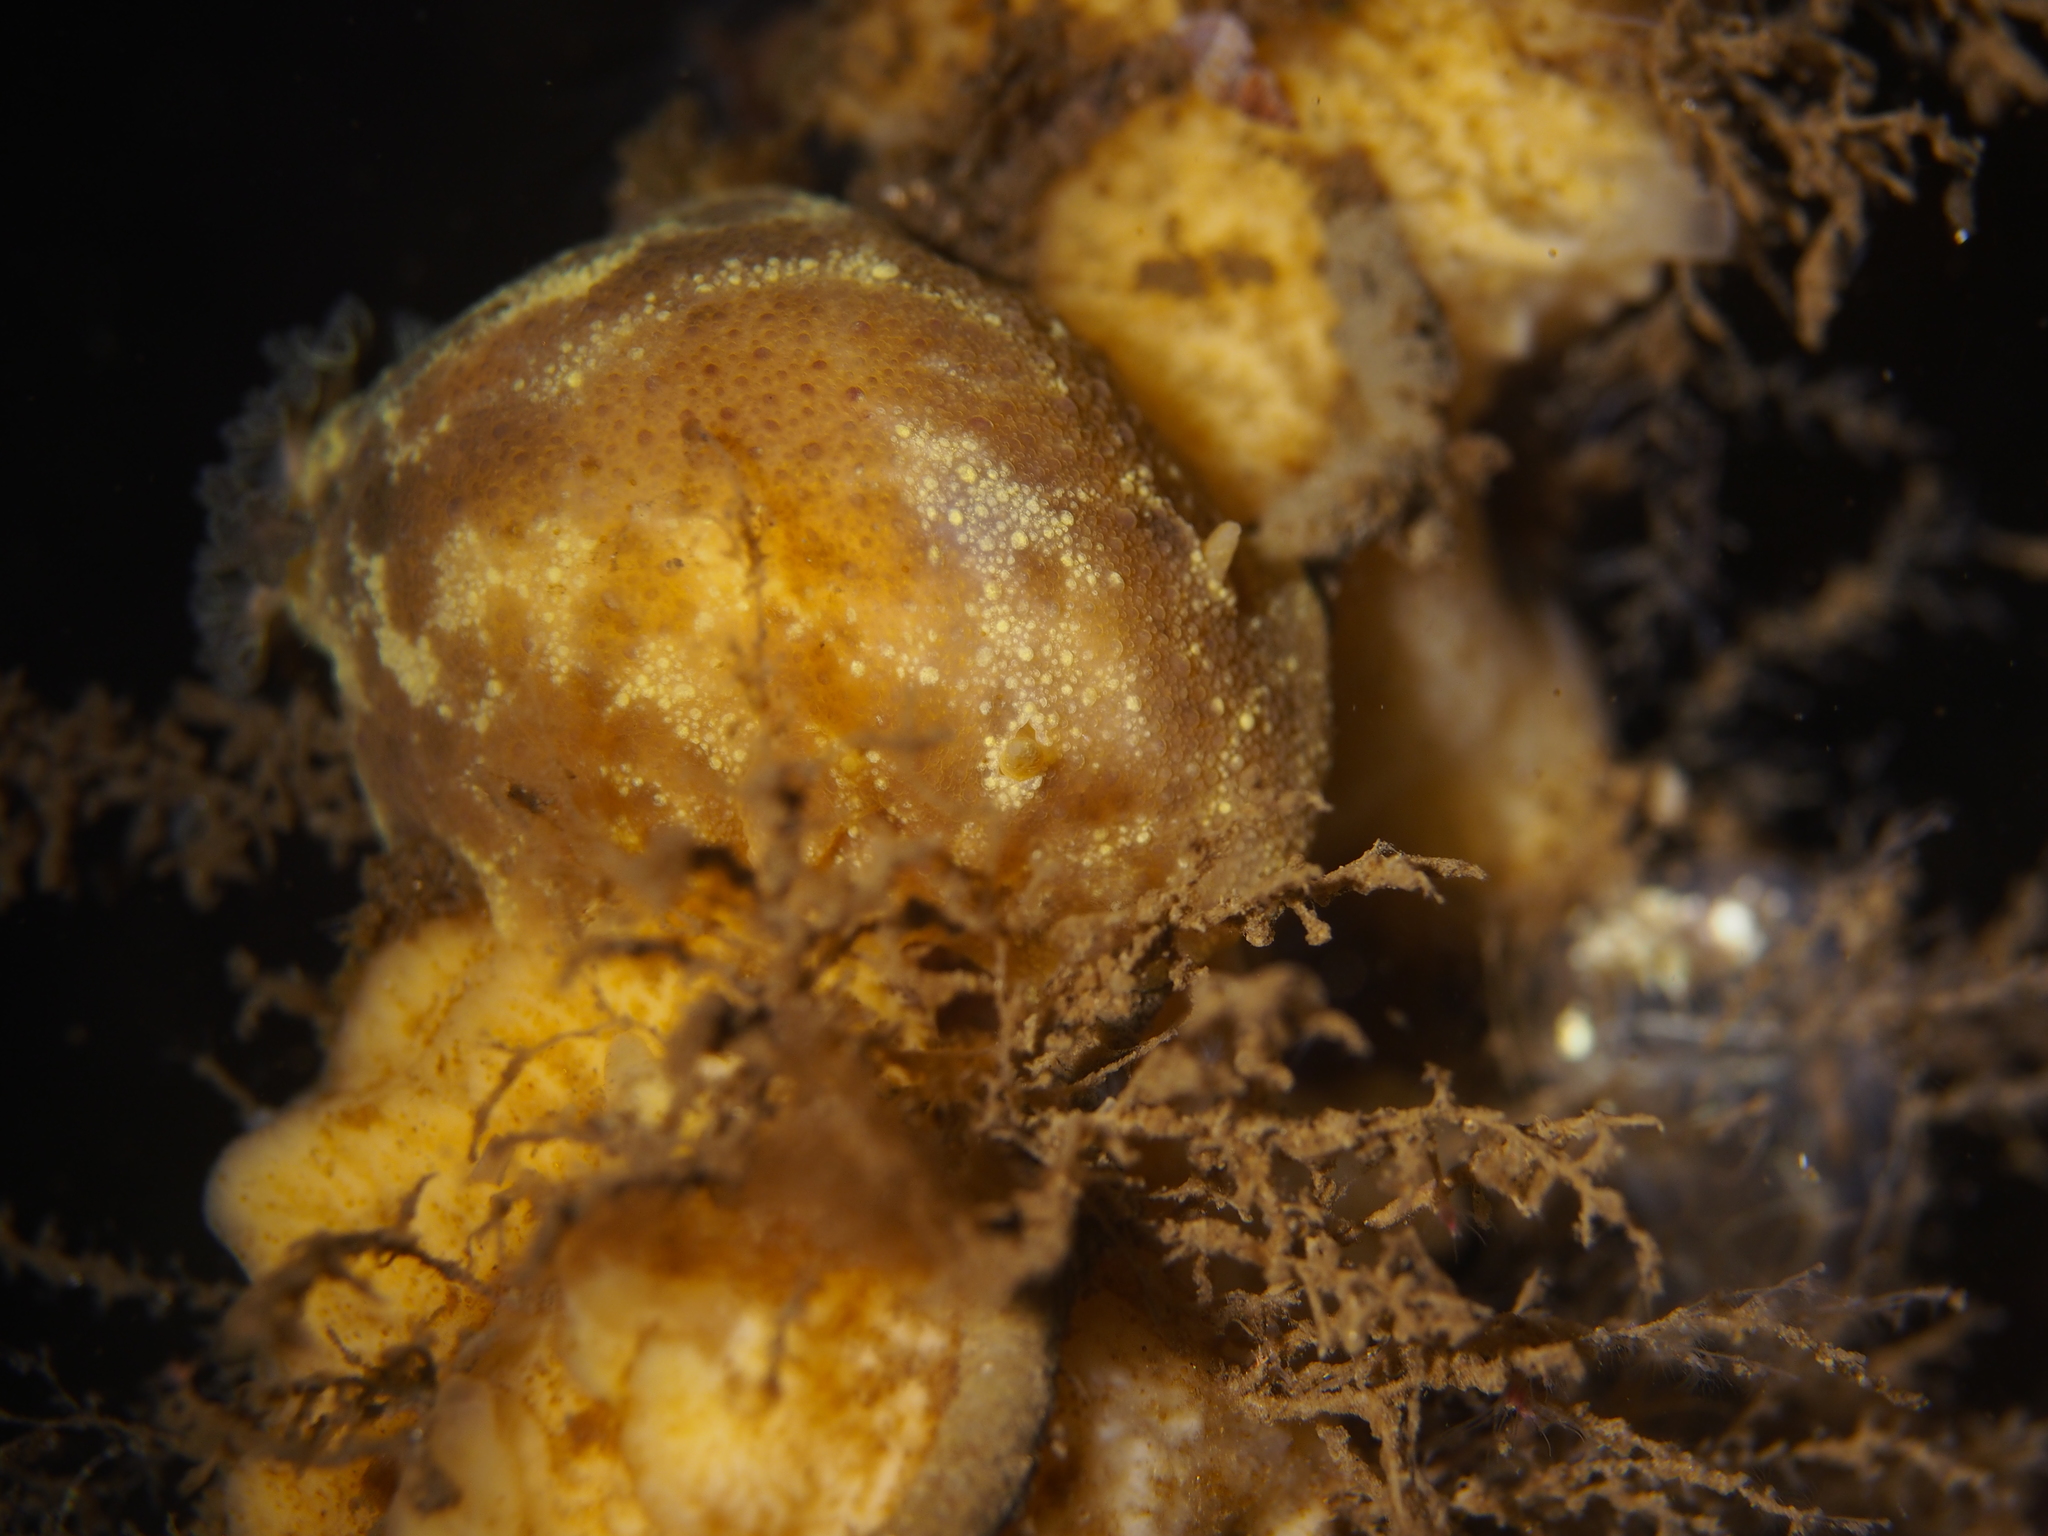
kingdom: Animalia
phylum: Mollusca
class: Gastropoda
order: Nudibranchia
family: Dorididae
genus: Doris
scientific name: Doris pseudoargus
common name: Sea lemon
